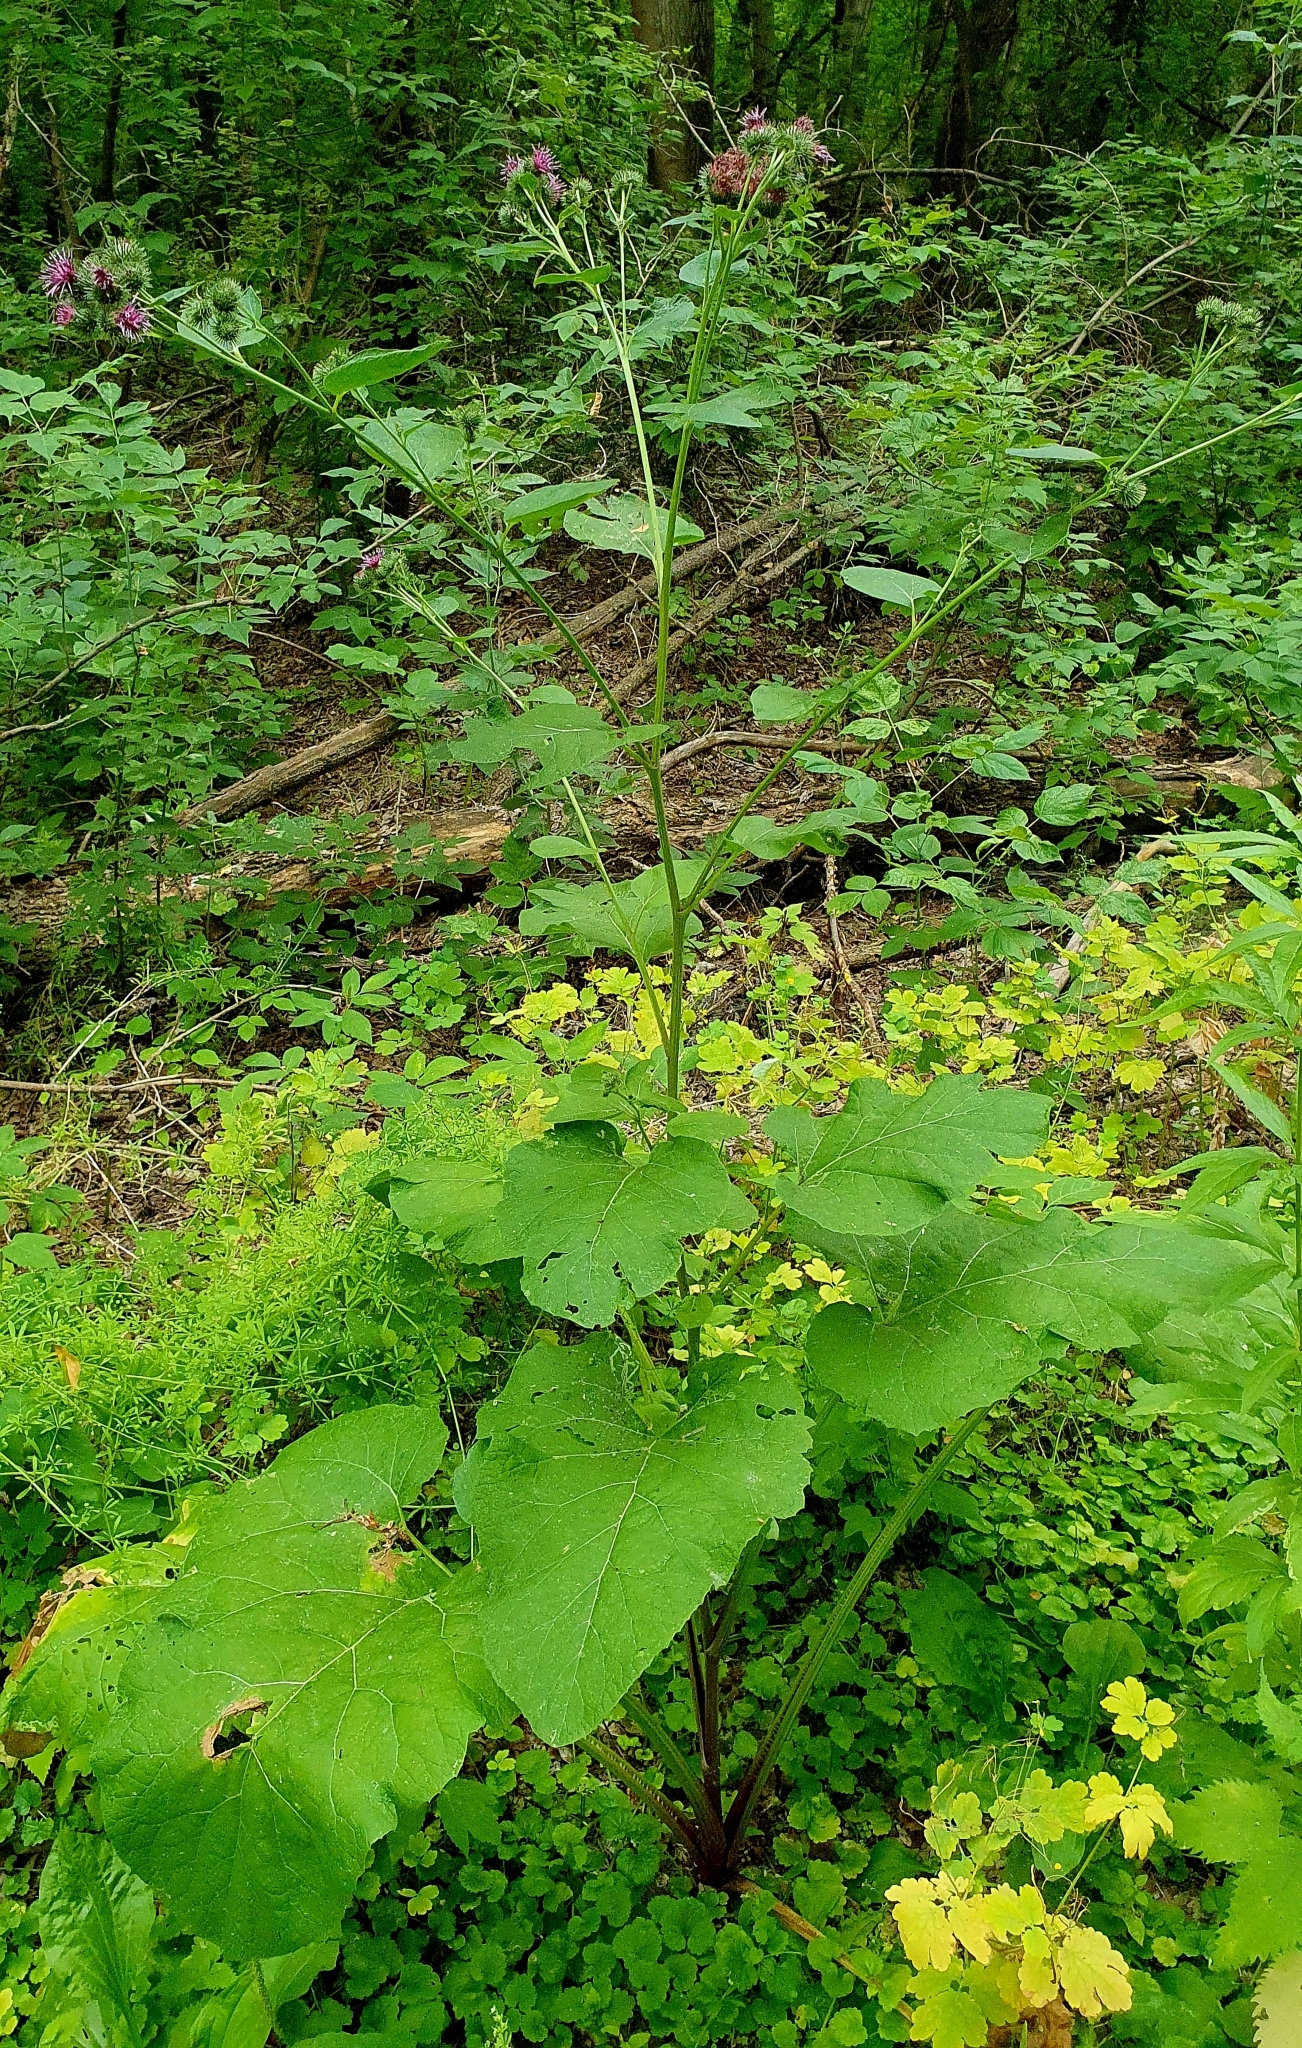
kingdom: Plantae
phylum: Tracheophyta
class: Magnoliopsida
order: Asterales
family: Asteraceae
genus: Arctium
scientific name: Arctium lappa
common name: Greater burdock
